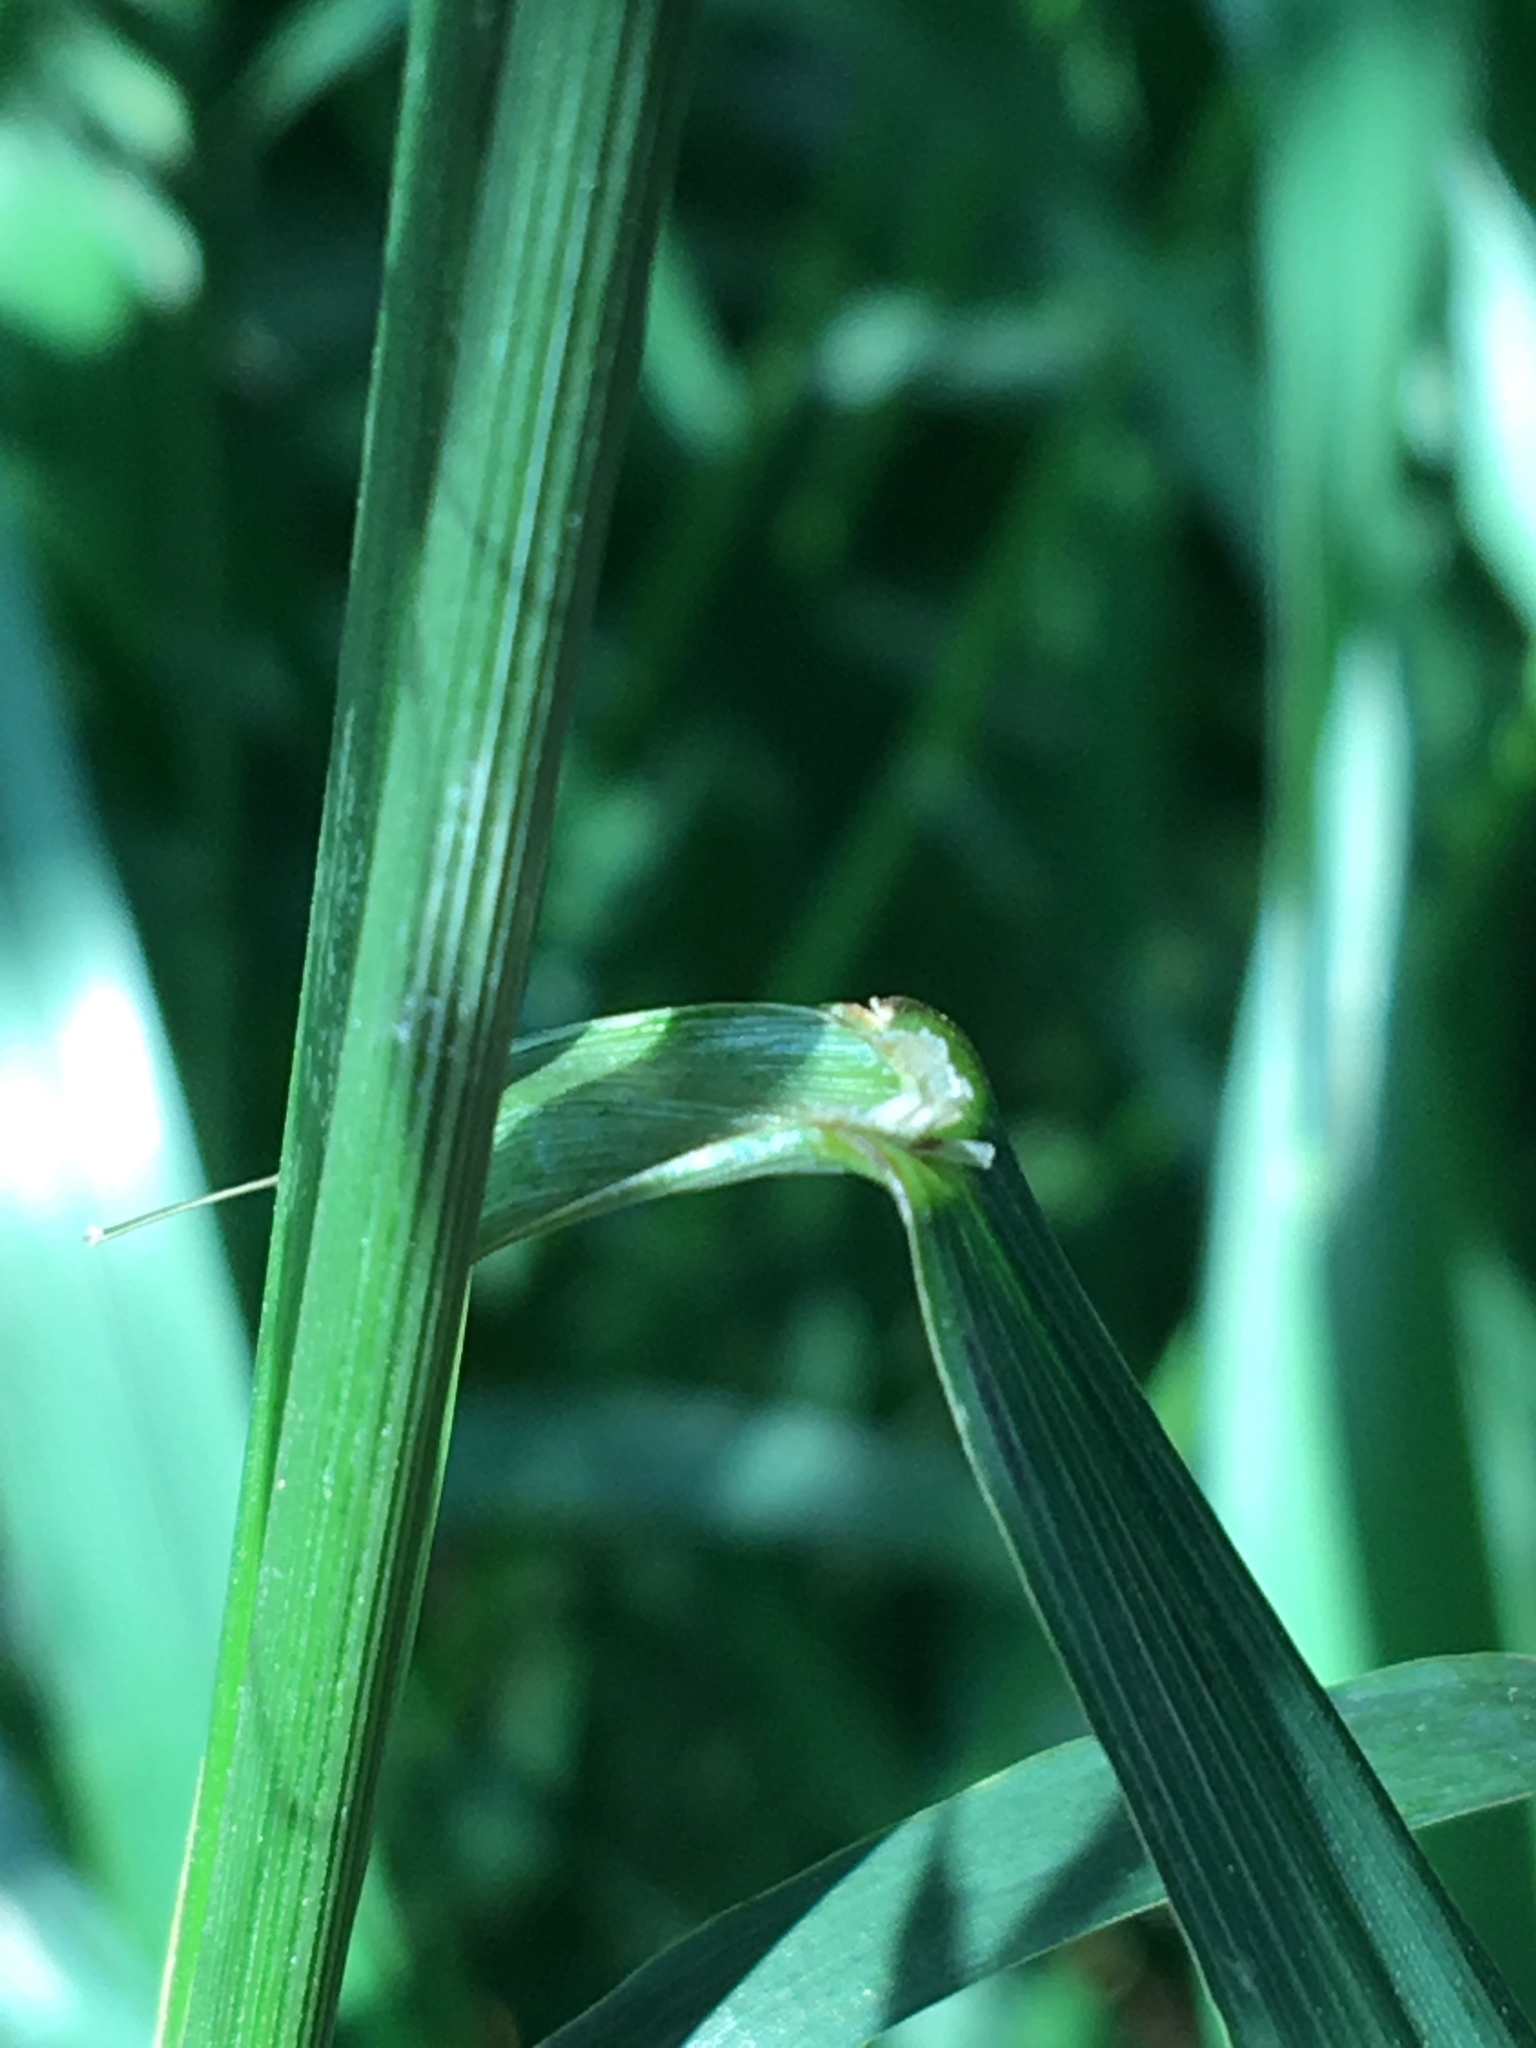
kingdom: Plantae
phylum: Tracheophyta
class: Liliopsida
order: Poales
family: Poaceae
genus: Bromus
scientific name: Bromus inermis
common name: Smooth brome
